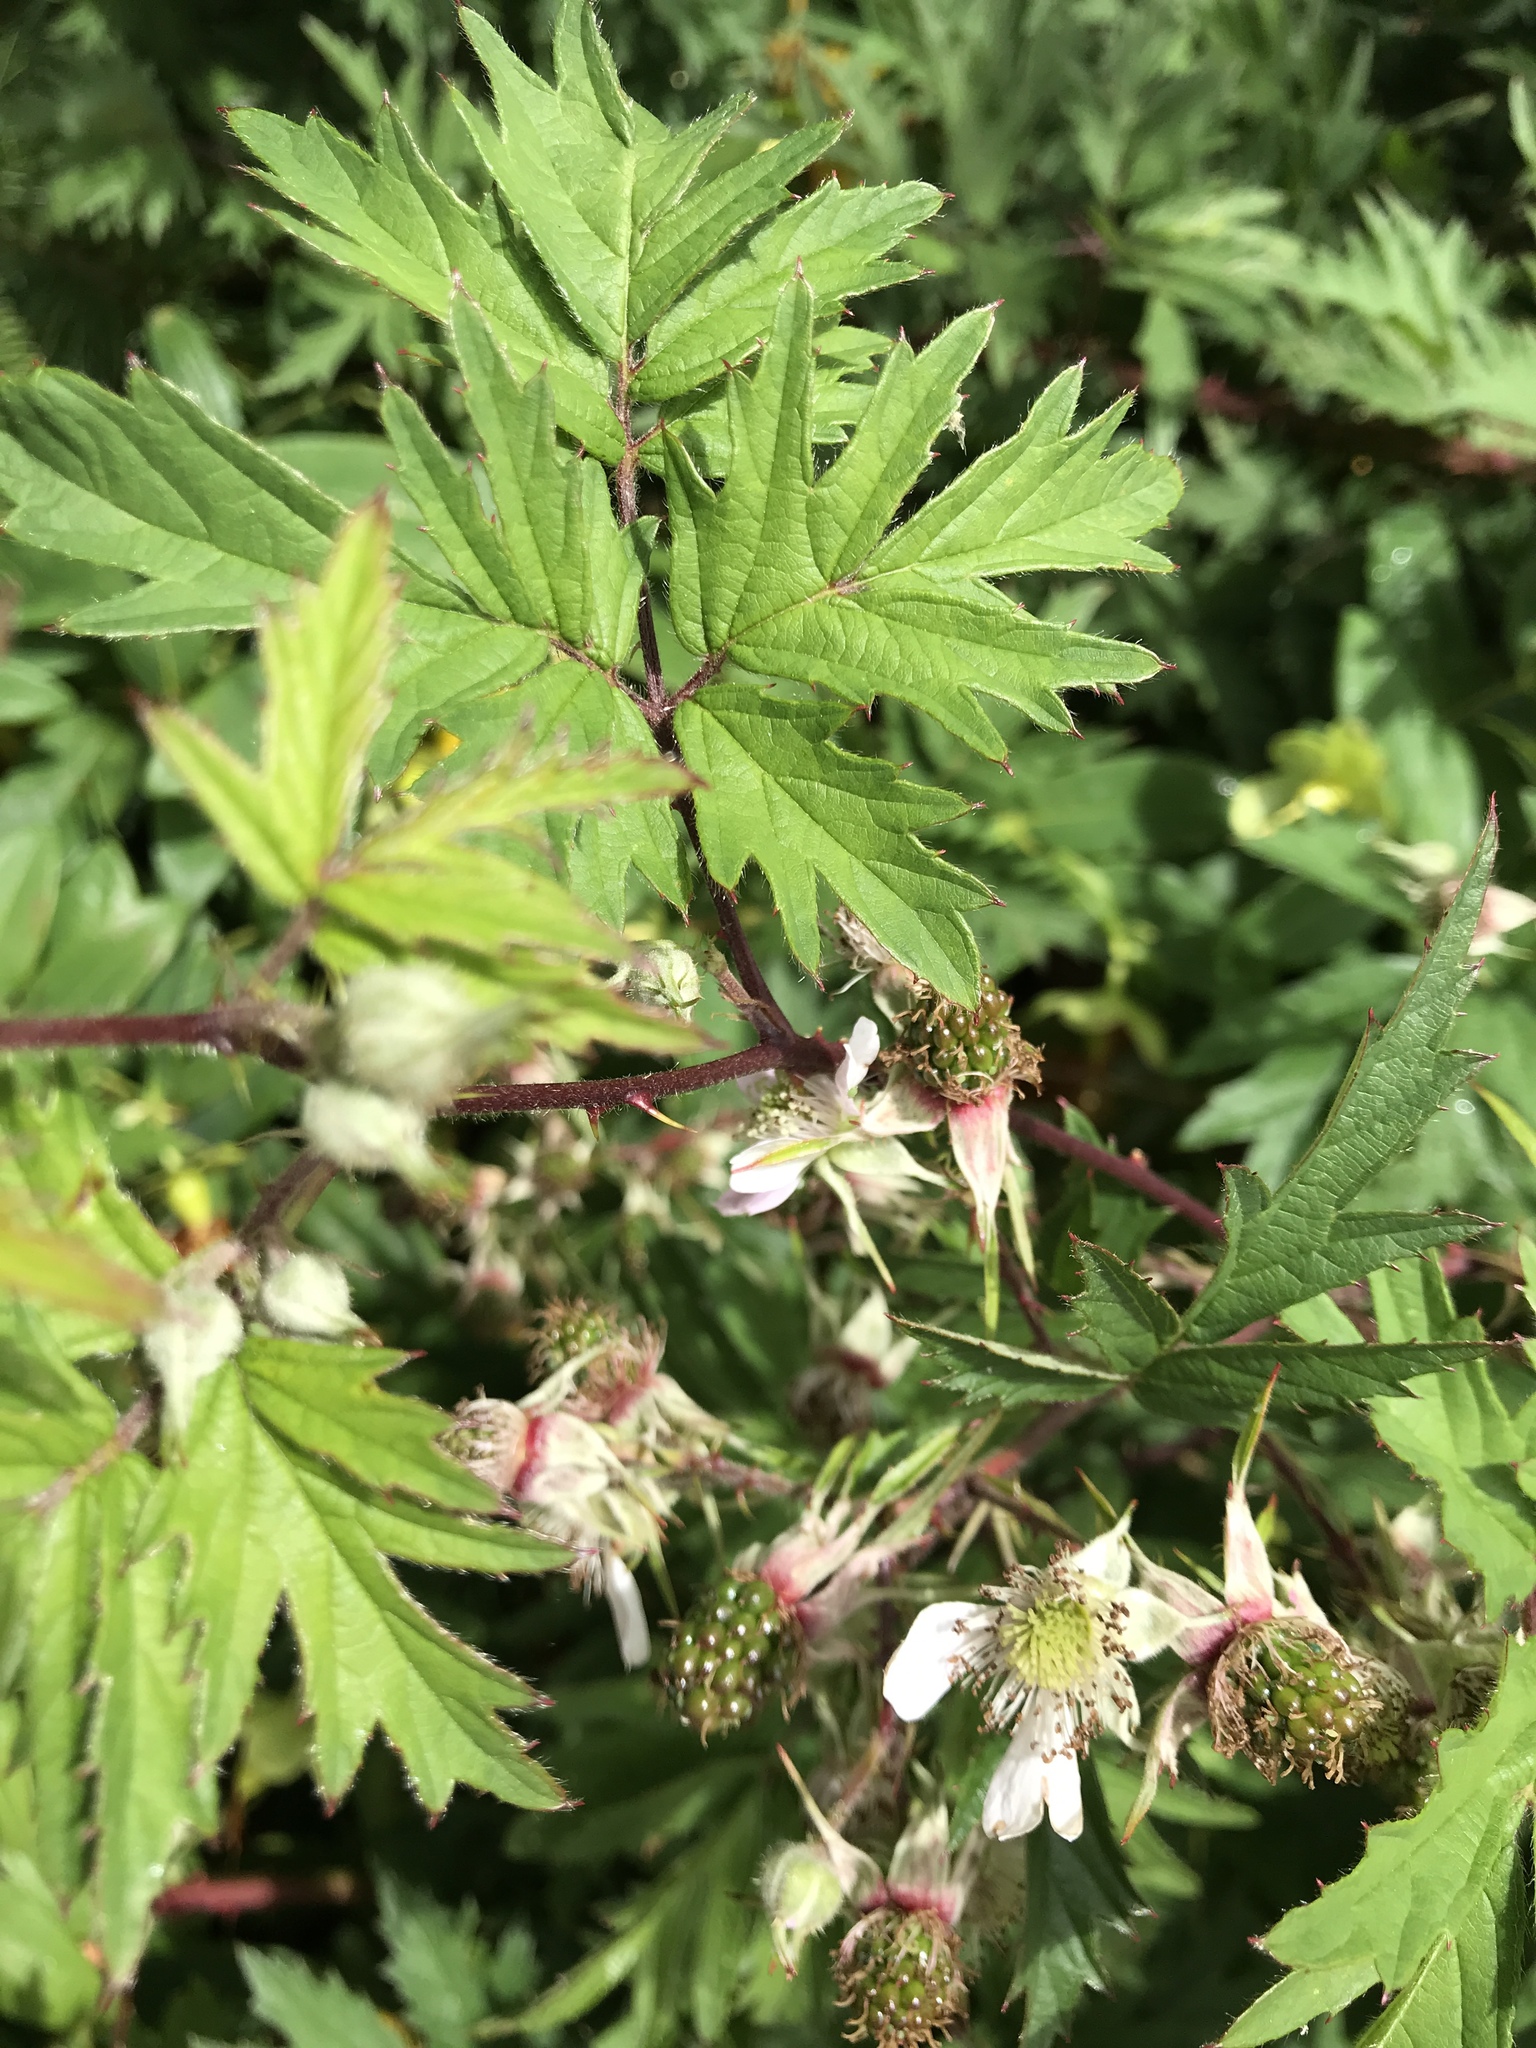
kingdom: Plantae
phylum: Tracheophyta
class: Magnoliopsida
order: Rosales
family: Rosaceae
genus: Rubus
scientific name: Rubus laciniatus
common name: Evergreen blackberry
